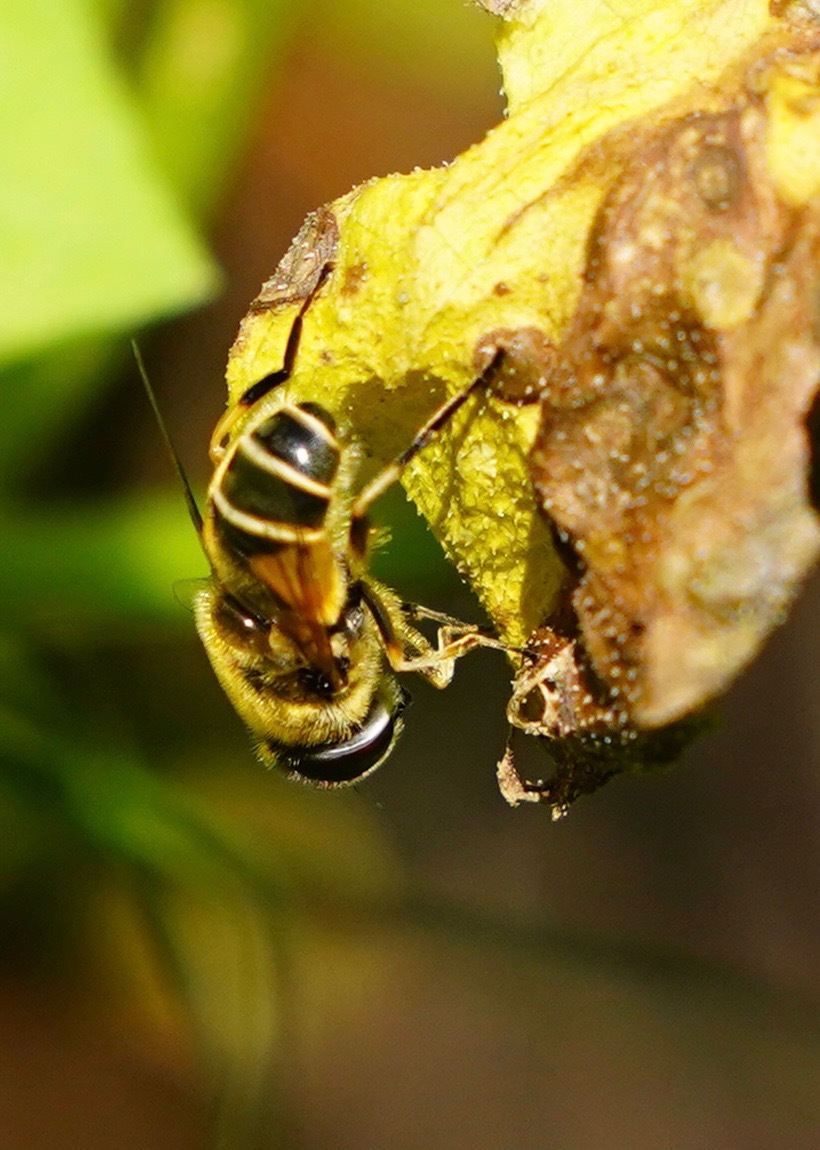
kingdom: Animalia
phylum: Arthropoda
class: Insecta
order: Diptera
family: Syrphidae
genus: Eristalis
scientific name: Eristalis hirta
